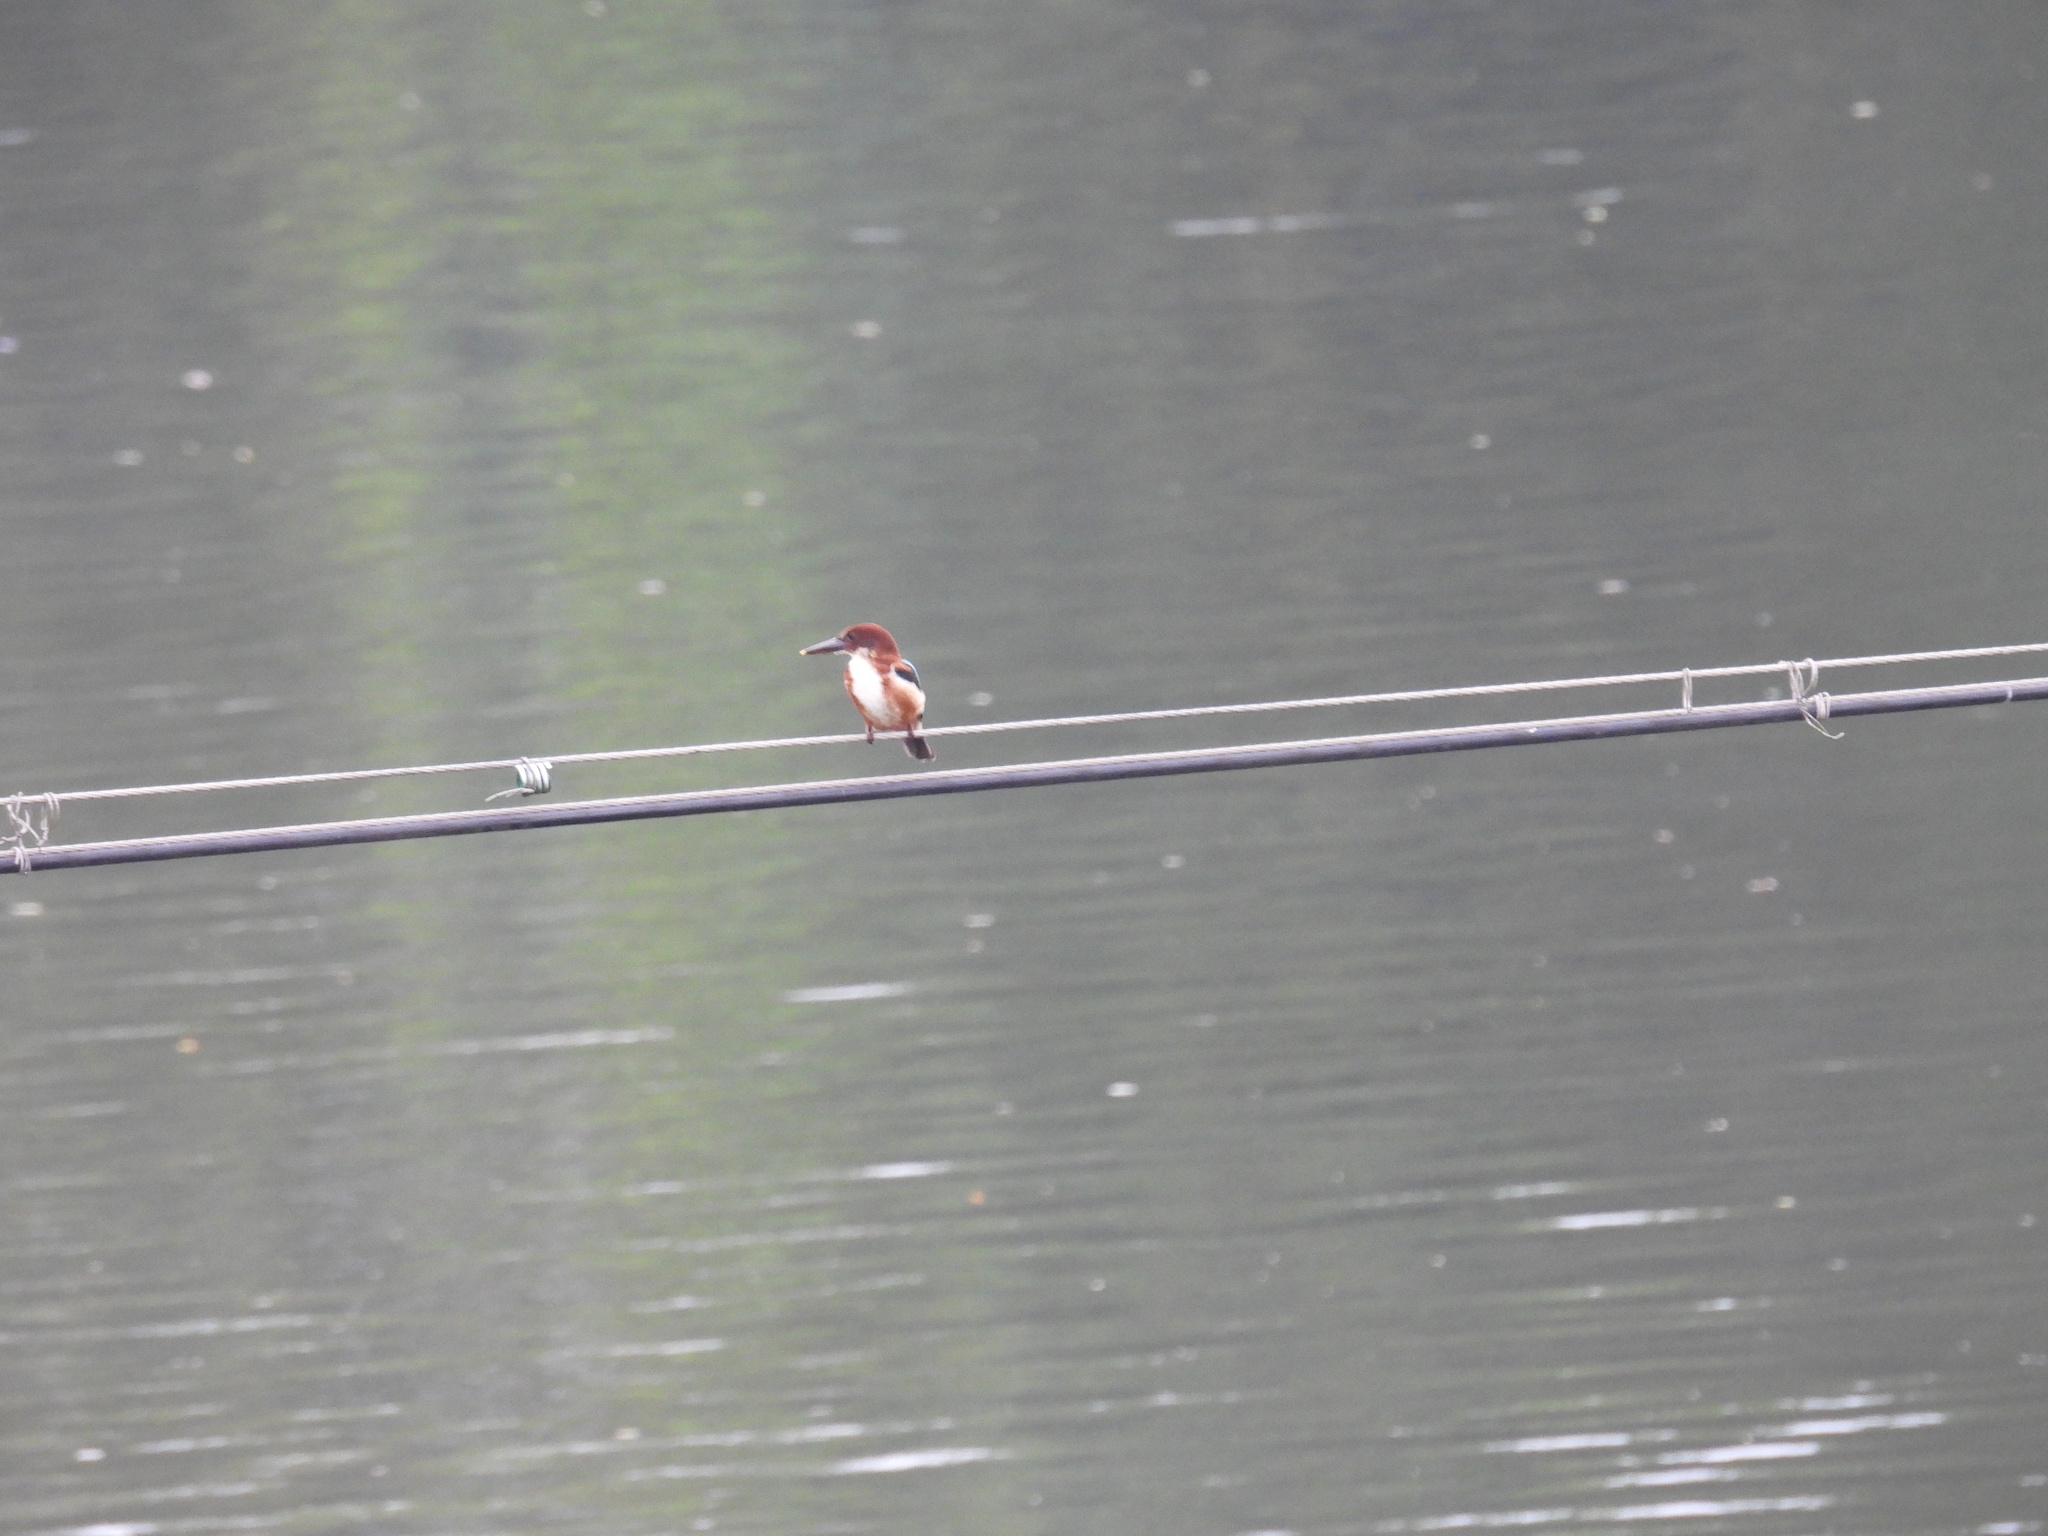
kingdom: Animalia
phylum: Chordata
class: Aves
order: Coraciiformes
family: Alcedinidae
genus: Halcyon
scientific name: Halcyon smyrnensis
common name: White-throated kingfisher
